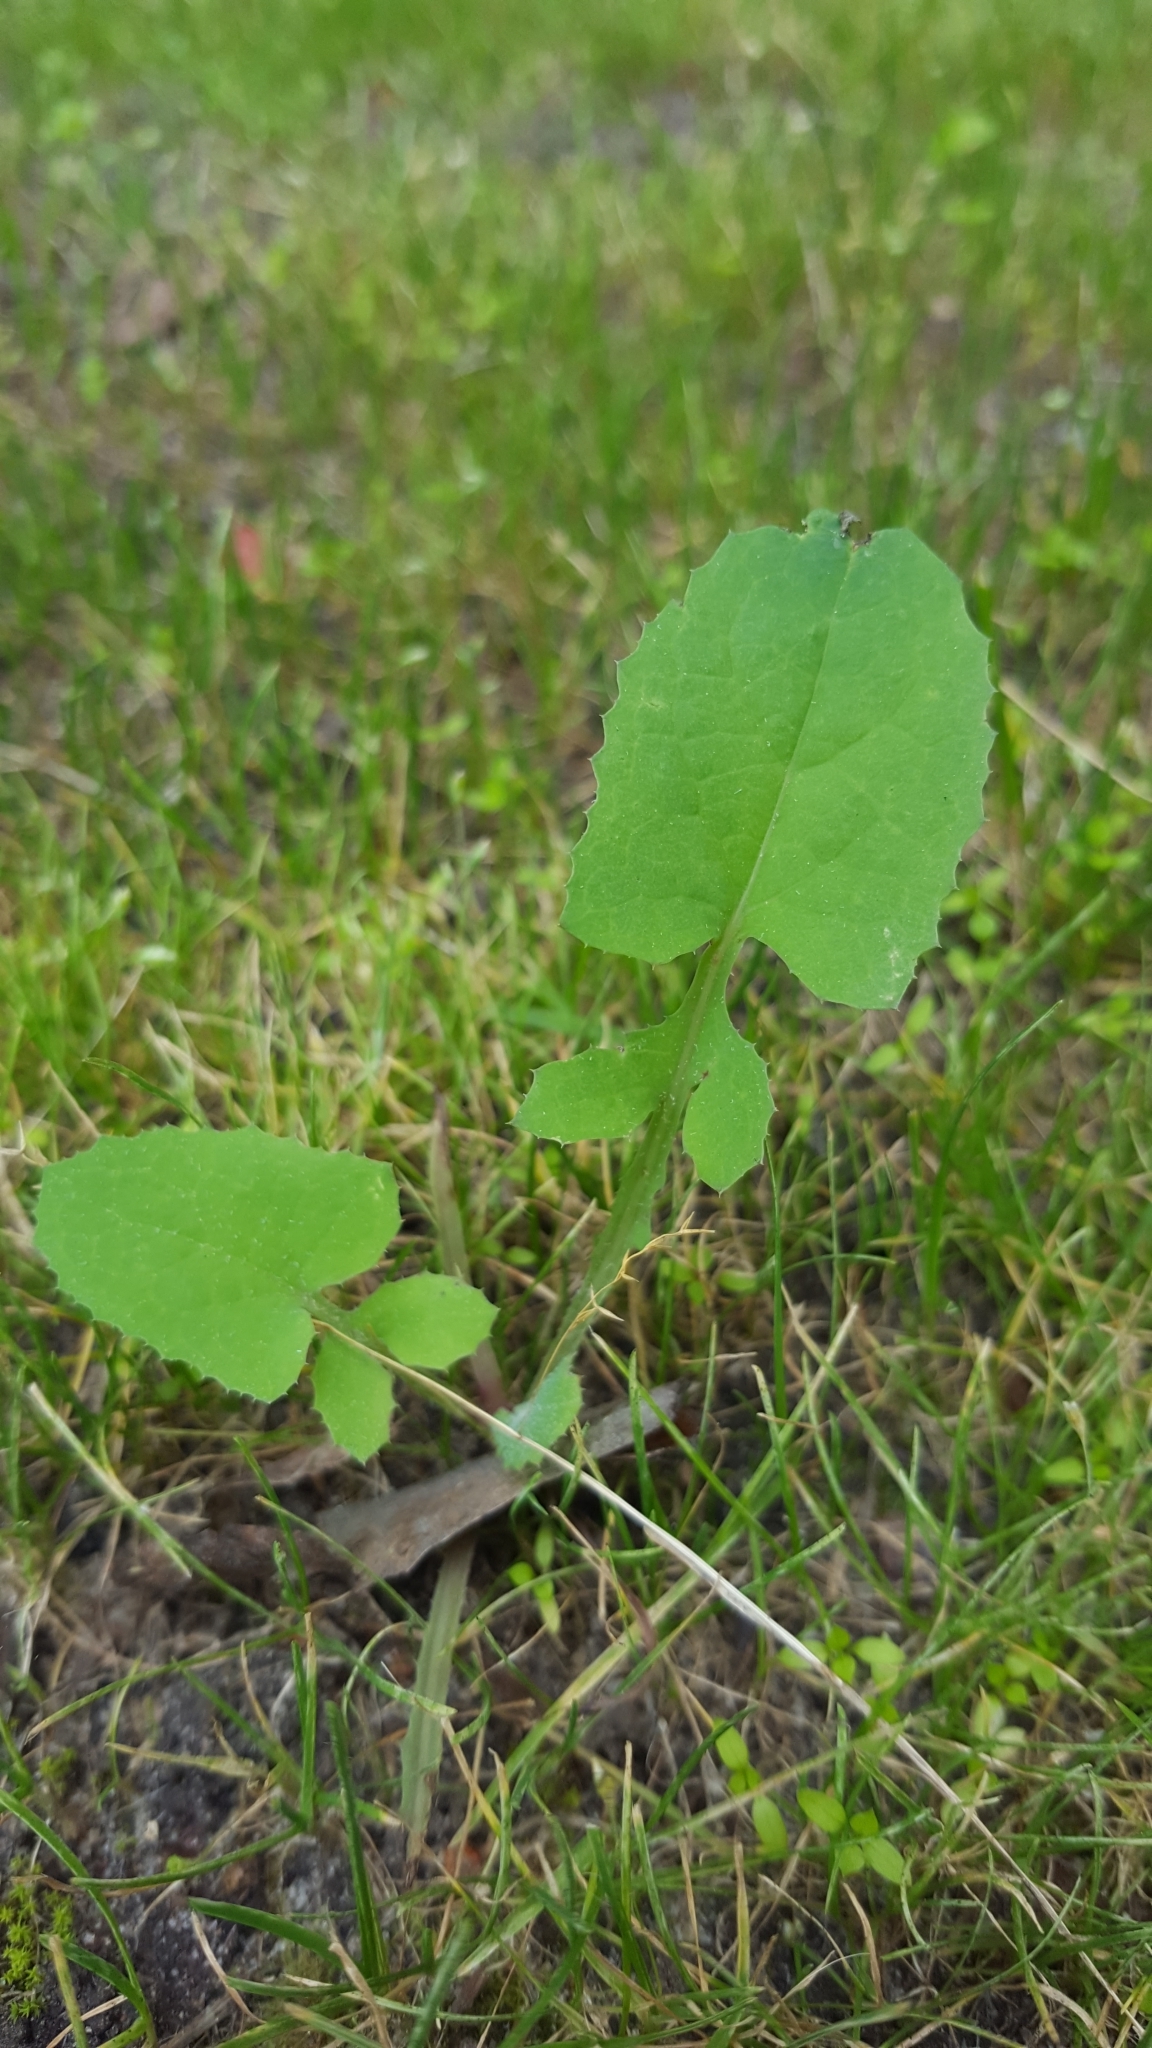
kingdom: Plantae
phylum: Tracheophyta
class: Magnoliopsida
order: Asterales
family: Asteraceae
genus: Sonchus
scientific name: Sonchus oleraceus
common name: Common sowthistle
